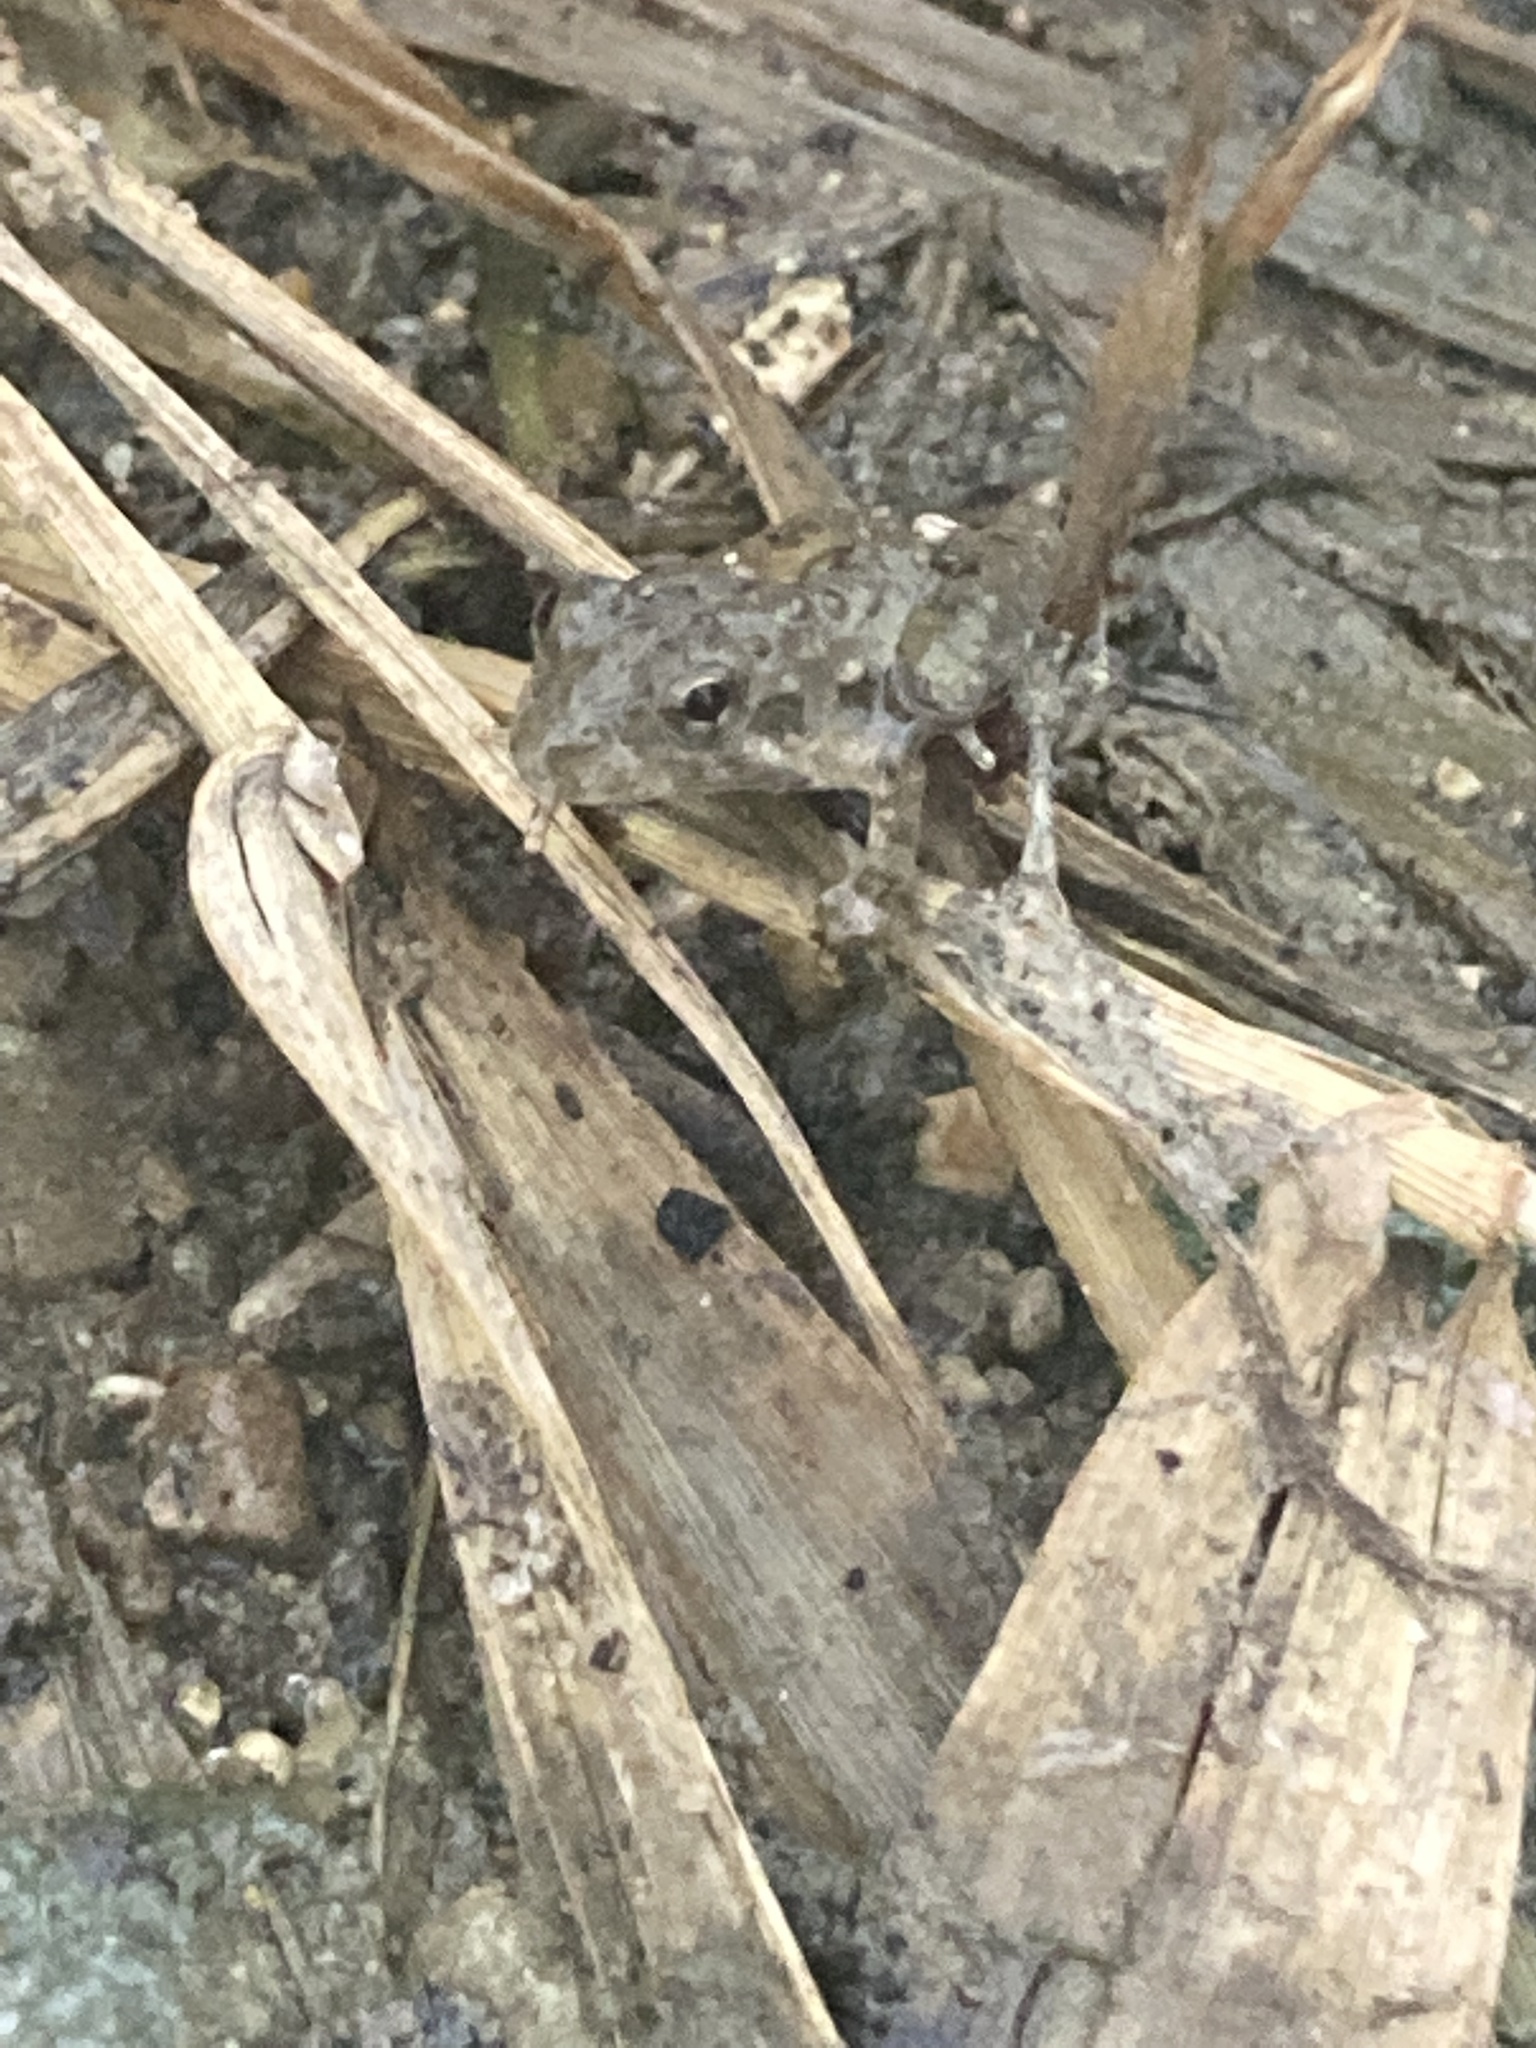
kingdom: Animalia
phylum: Chordata
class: Amphibia
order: Anura
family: Hylidae
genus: Acris
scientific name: Acris blanchardi
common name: Blanchard's cricket frog
